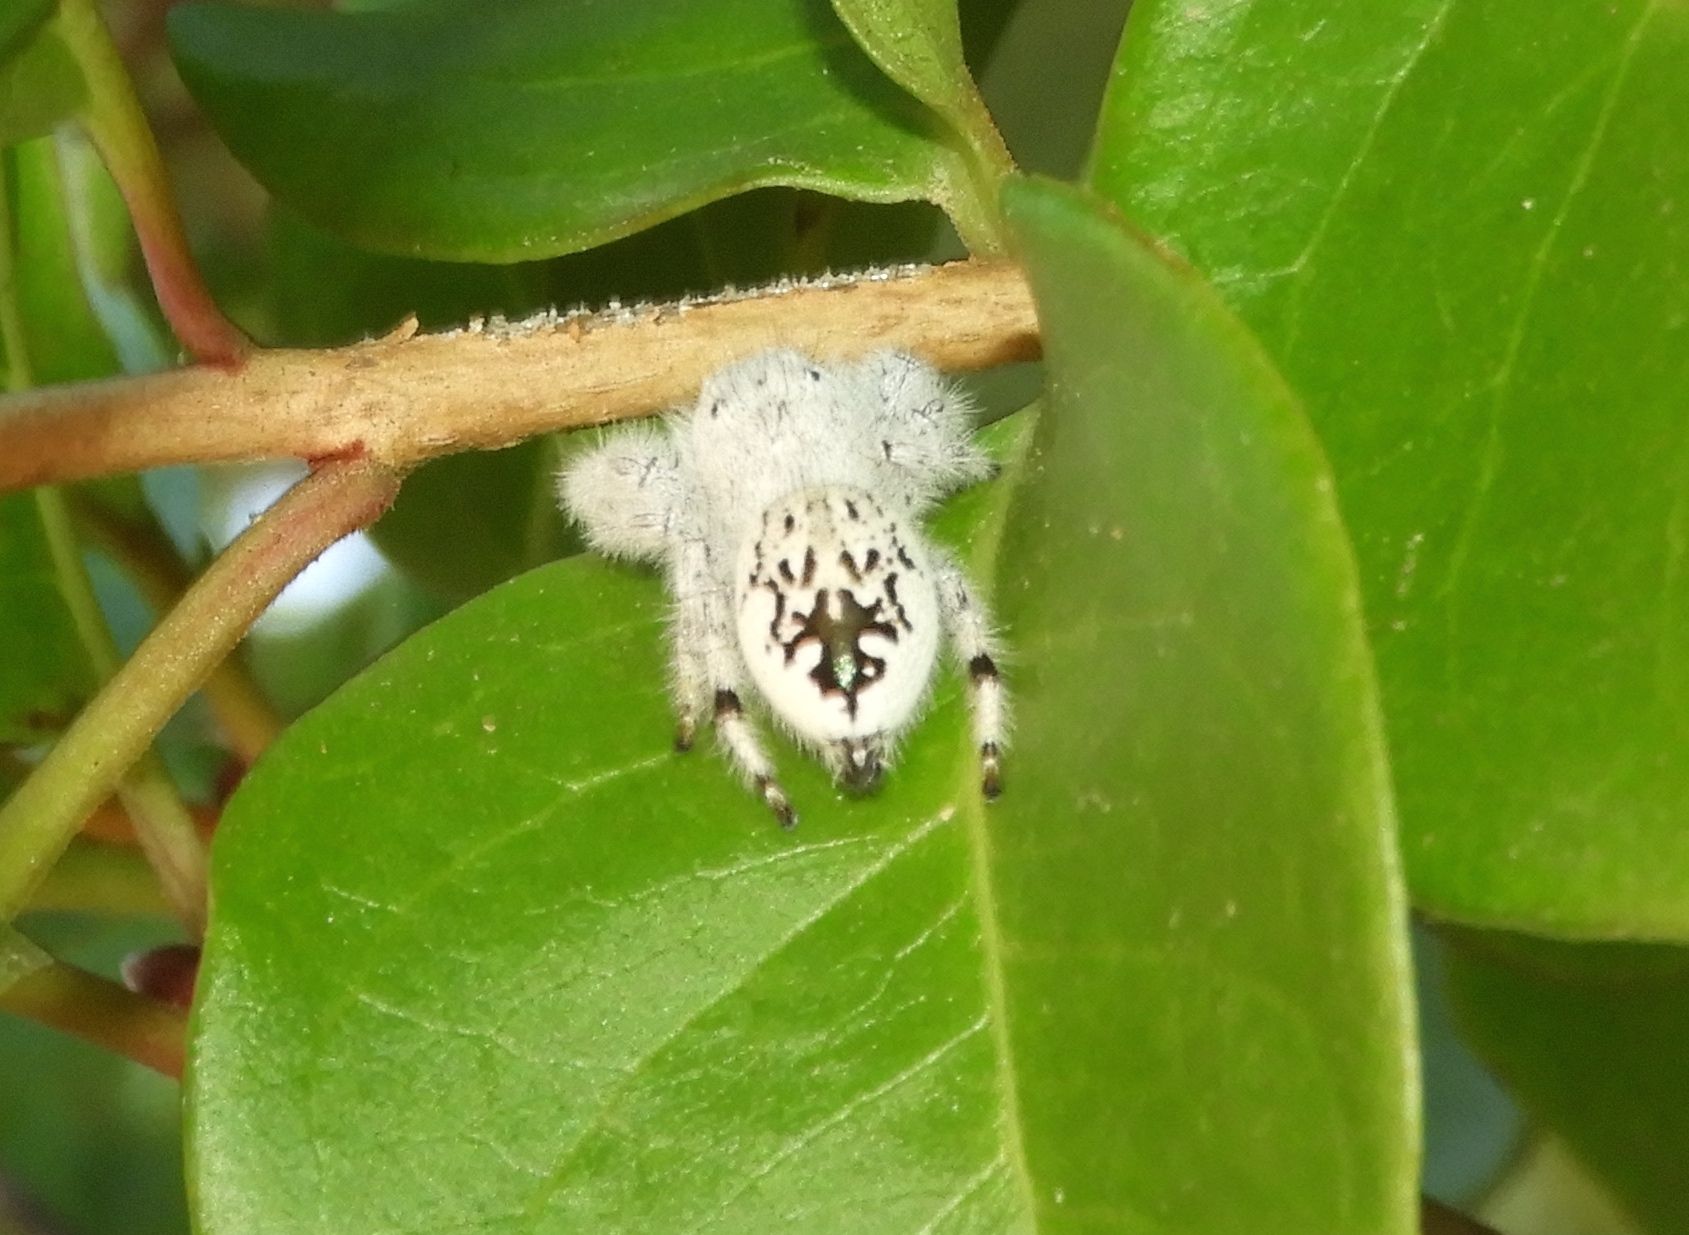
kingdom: Animalia
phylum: Arthropoda
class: Arachnida
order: Araneae
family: Salticidae
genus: Paraphidippus
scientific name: Paraphidippus fartilis
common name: Jumping spiders
